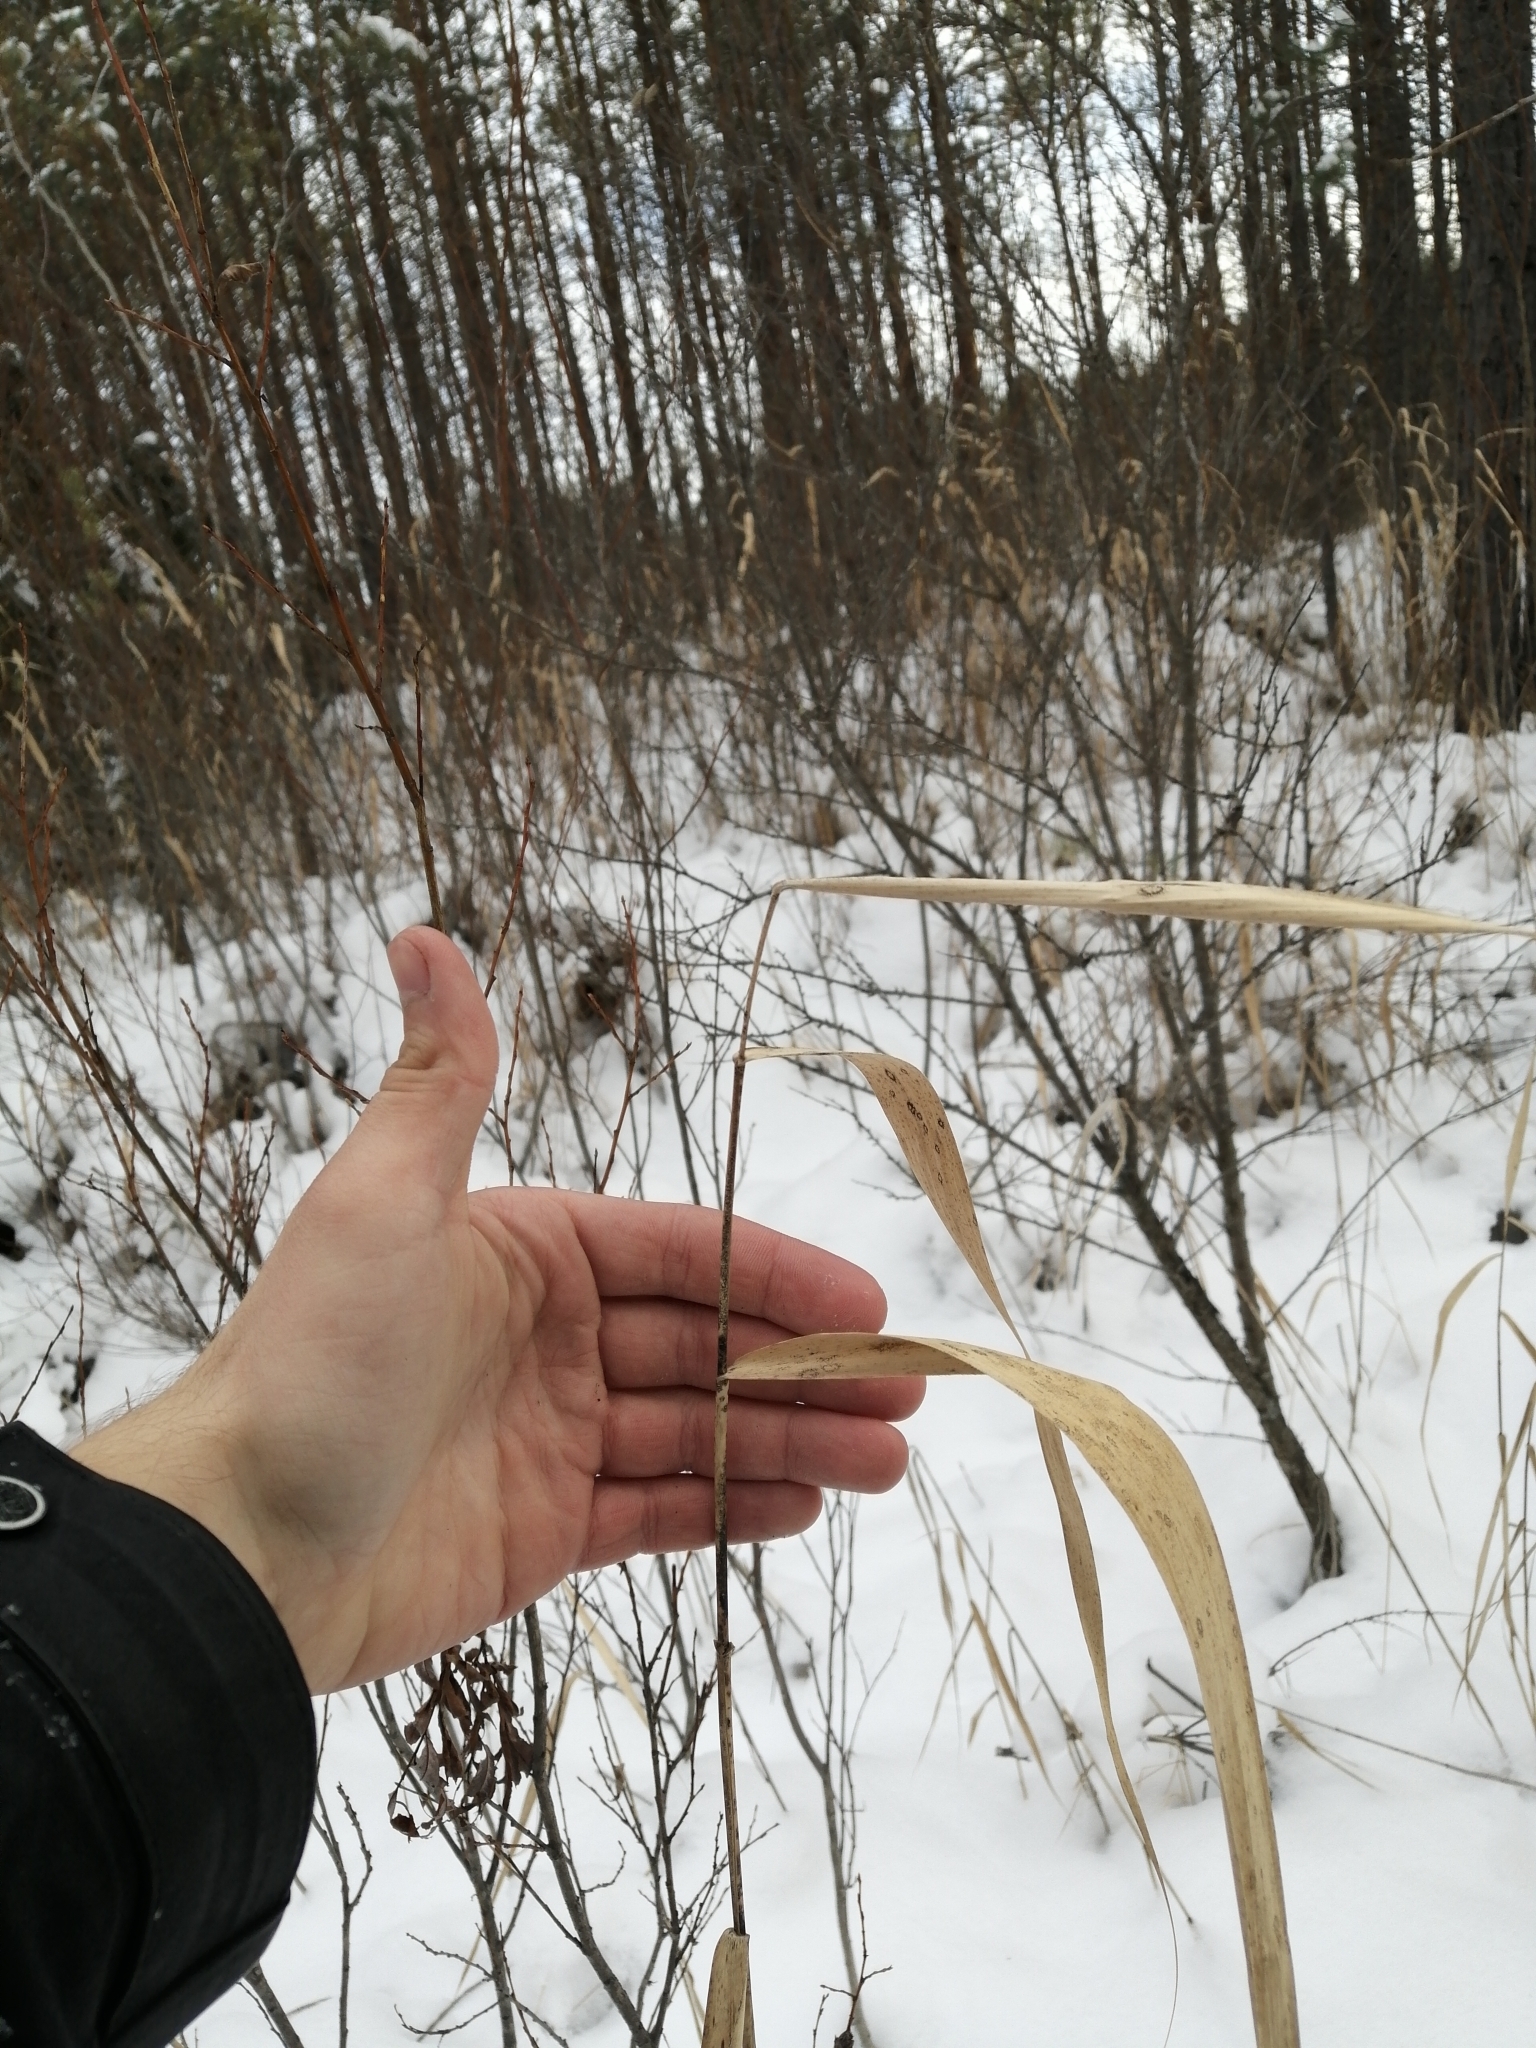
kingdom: Plantae
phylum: Tracheophyta
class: Liliopsida
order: Poales
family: Poaceae
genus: Phragmites
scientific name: Phragmites australis
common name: Common reed
